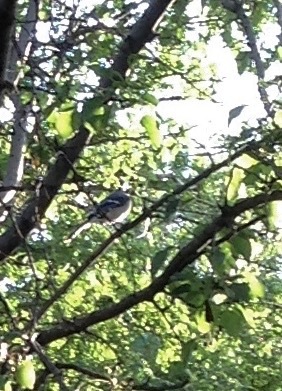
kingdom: Animalia
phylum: Chordata
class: Aves
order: Passeriformes
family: Corvidae
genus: Cyanocitta
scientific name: Cyanocitta cristata
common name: Blue jay
